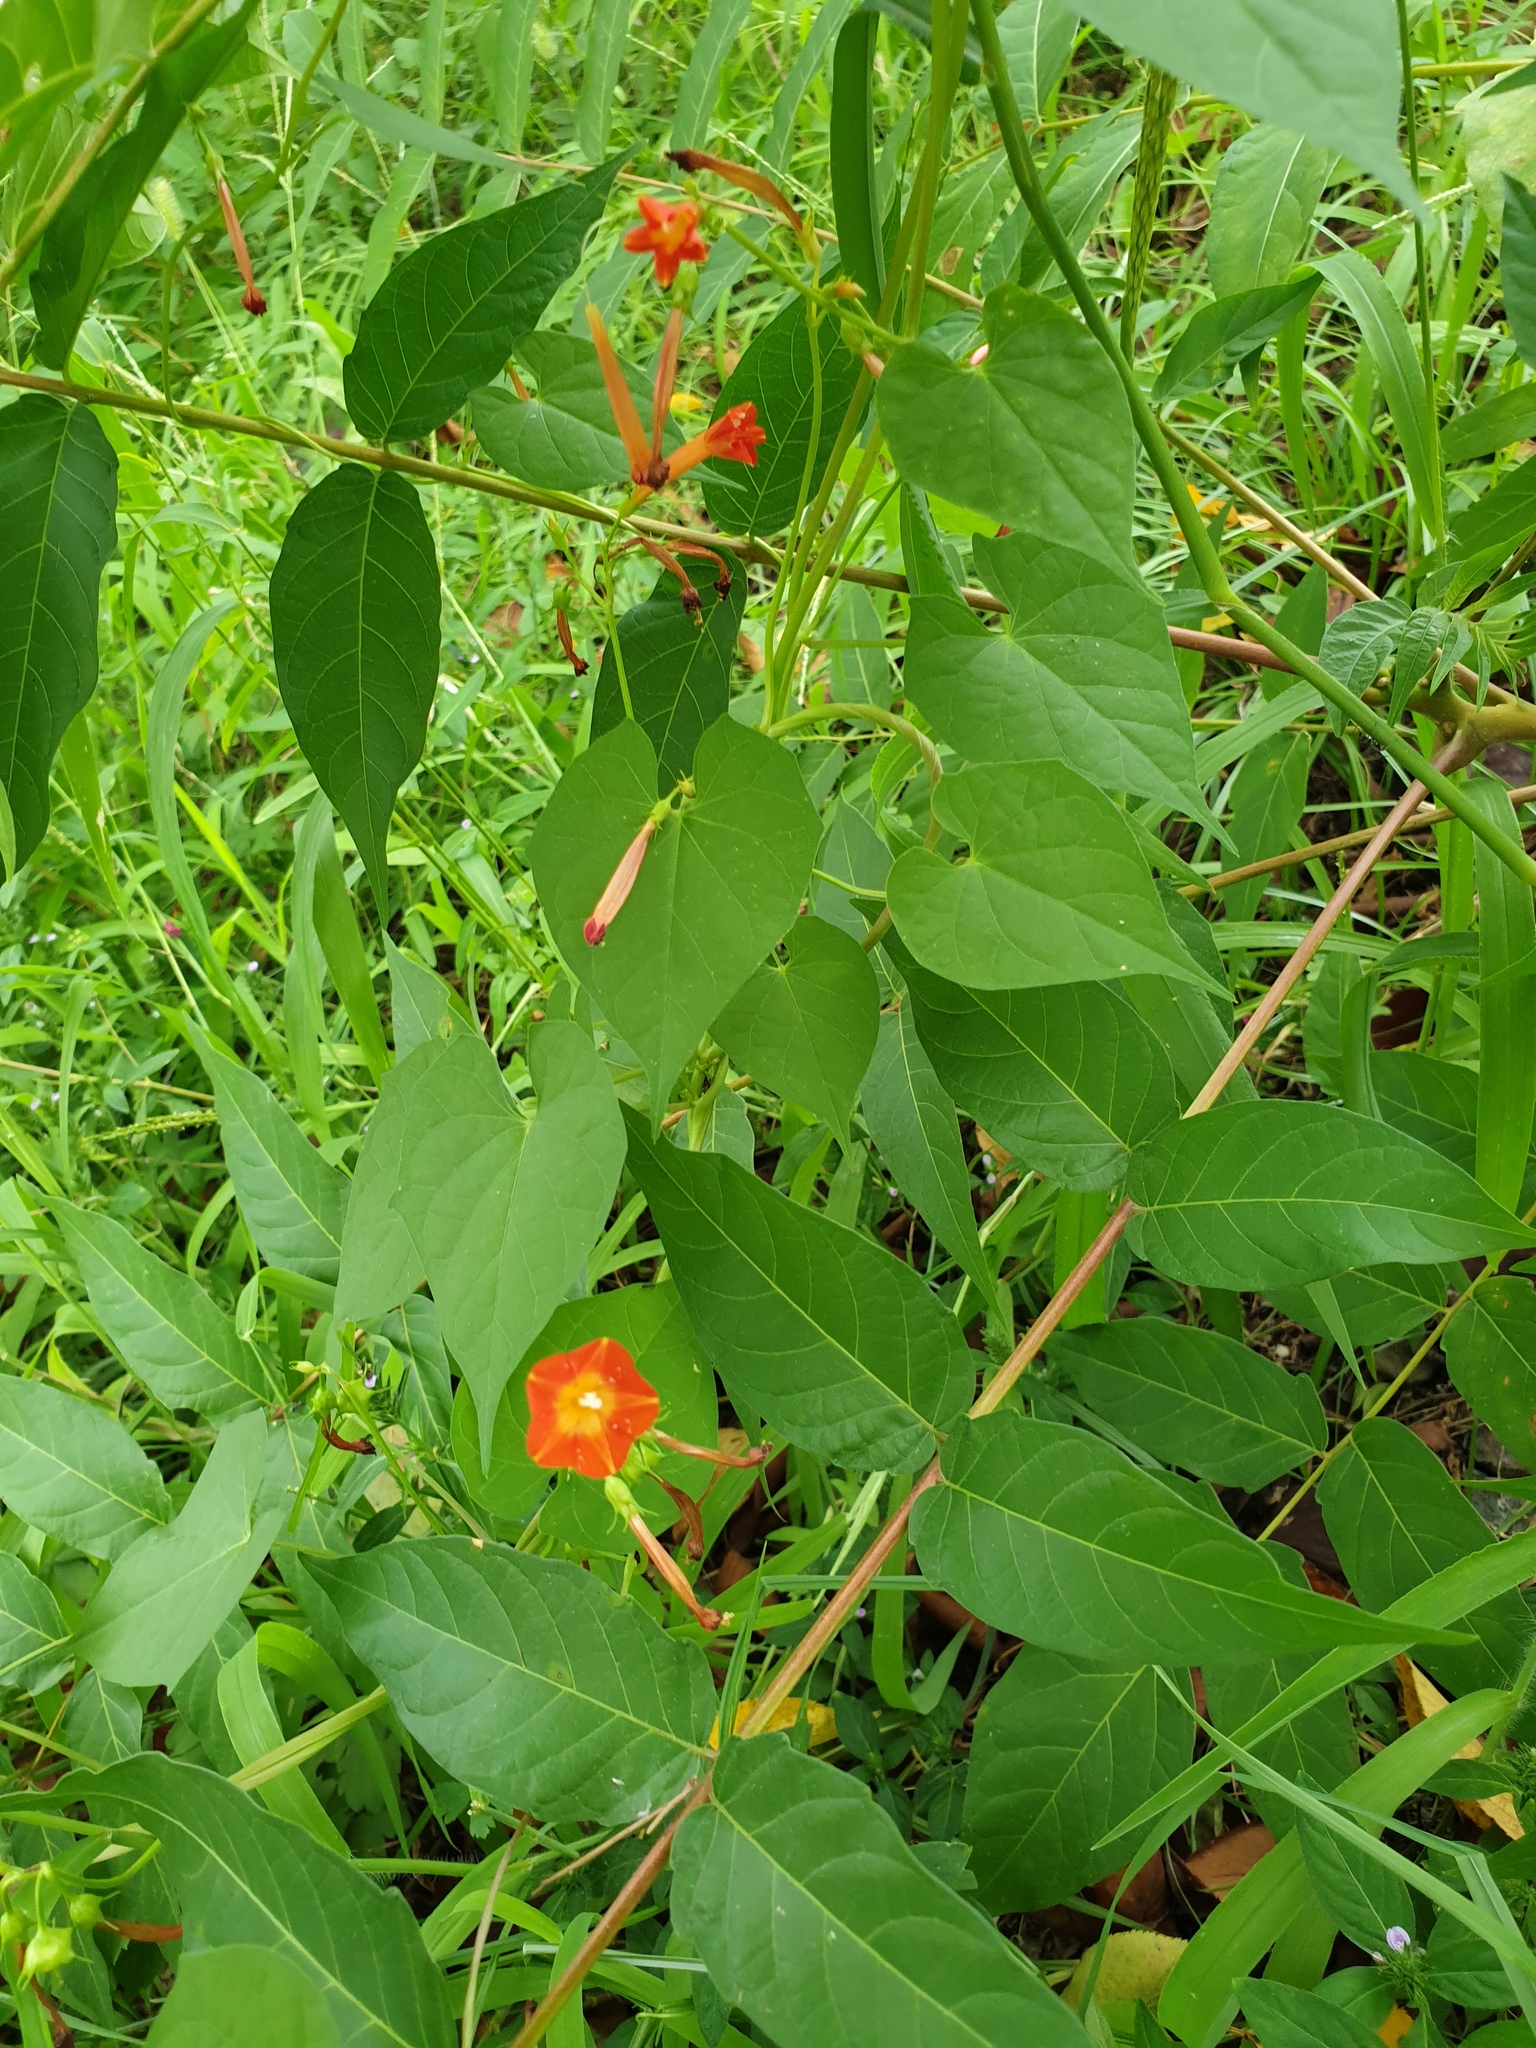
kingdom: Plantae
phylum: Tracheophyta
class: Magnoliopsida
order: Solanales
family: Convolvulaceae
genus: Ipomoea
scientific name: Ipomoea coccinea
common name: Red morning-glory
